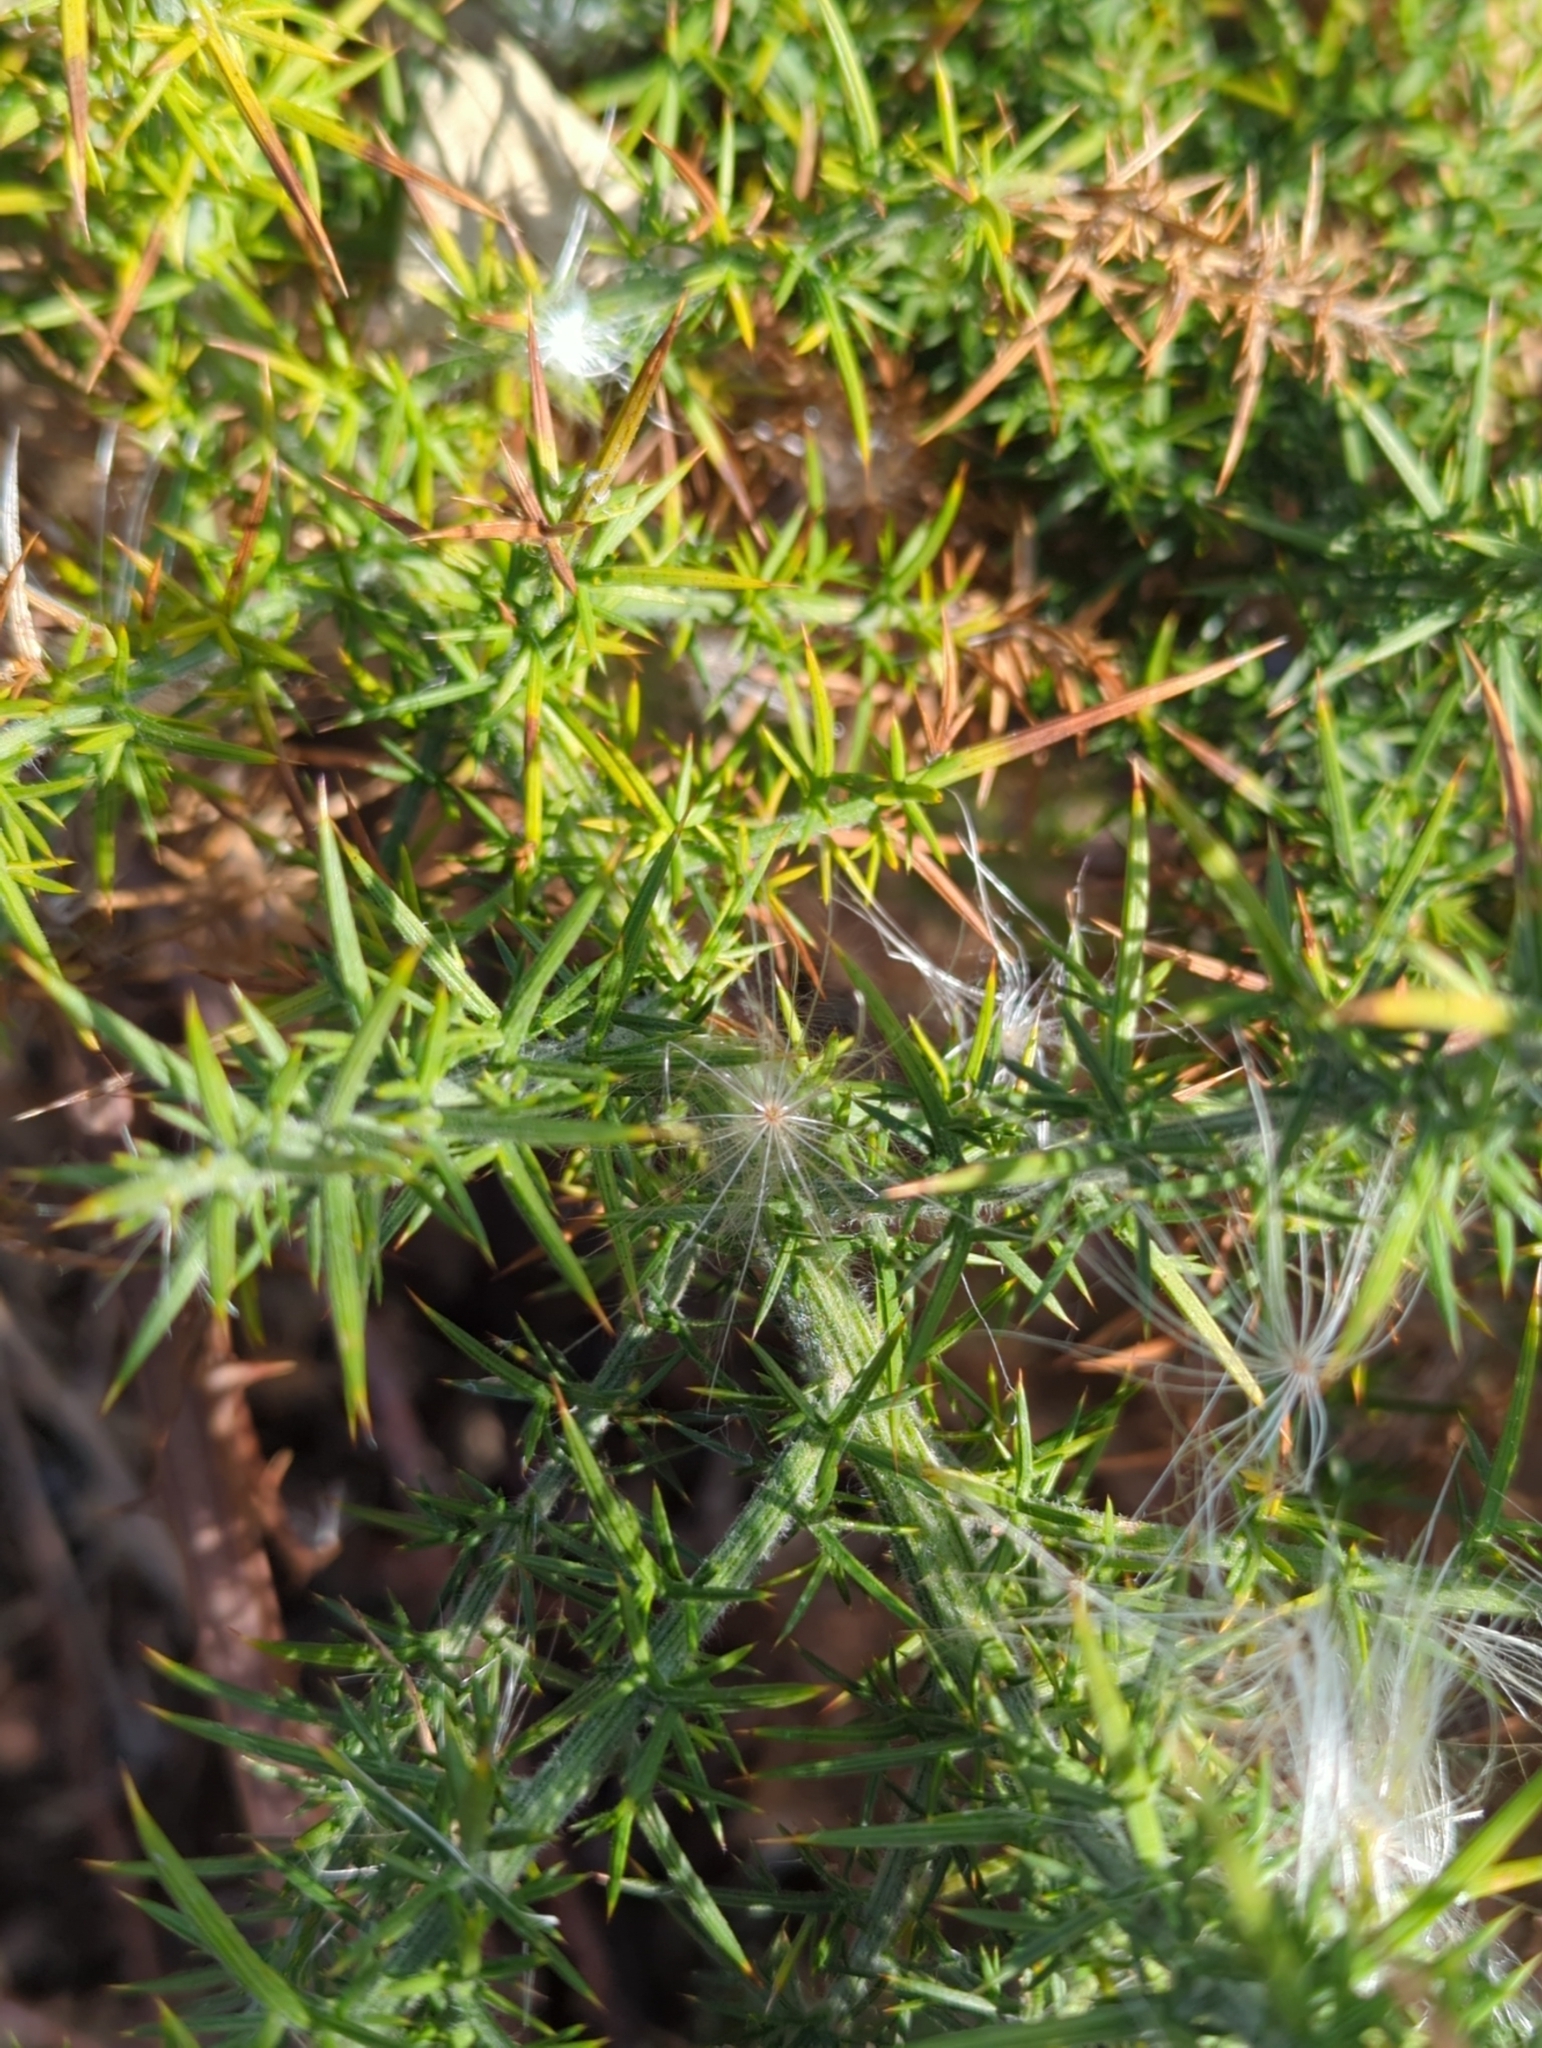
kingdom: Plantae
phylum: Tracheophyta
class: Magnoliopsida
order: Fabales
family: Fabaceae
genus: Ulex
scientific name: Ulex europaeus
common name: Common gorse
